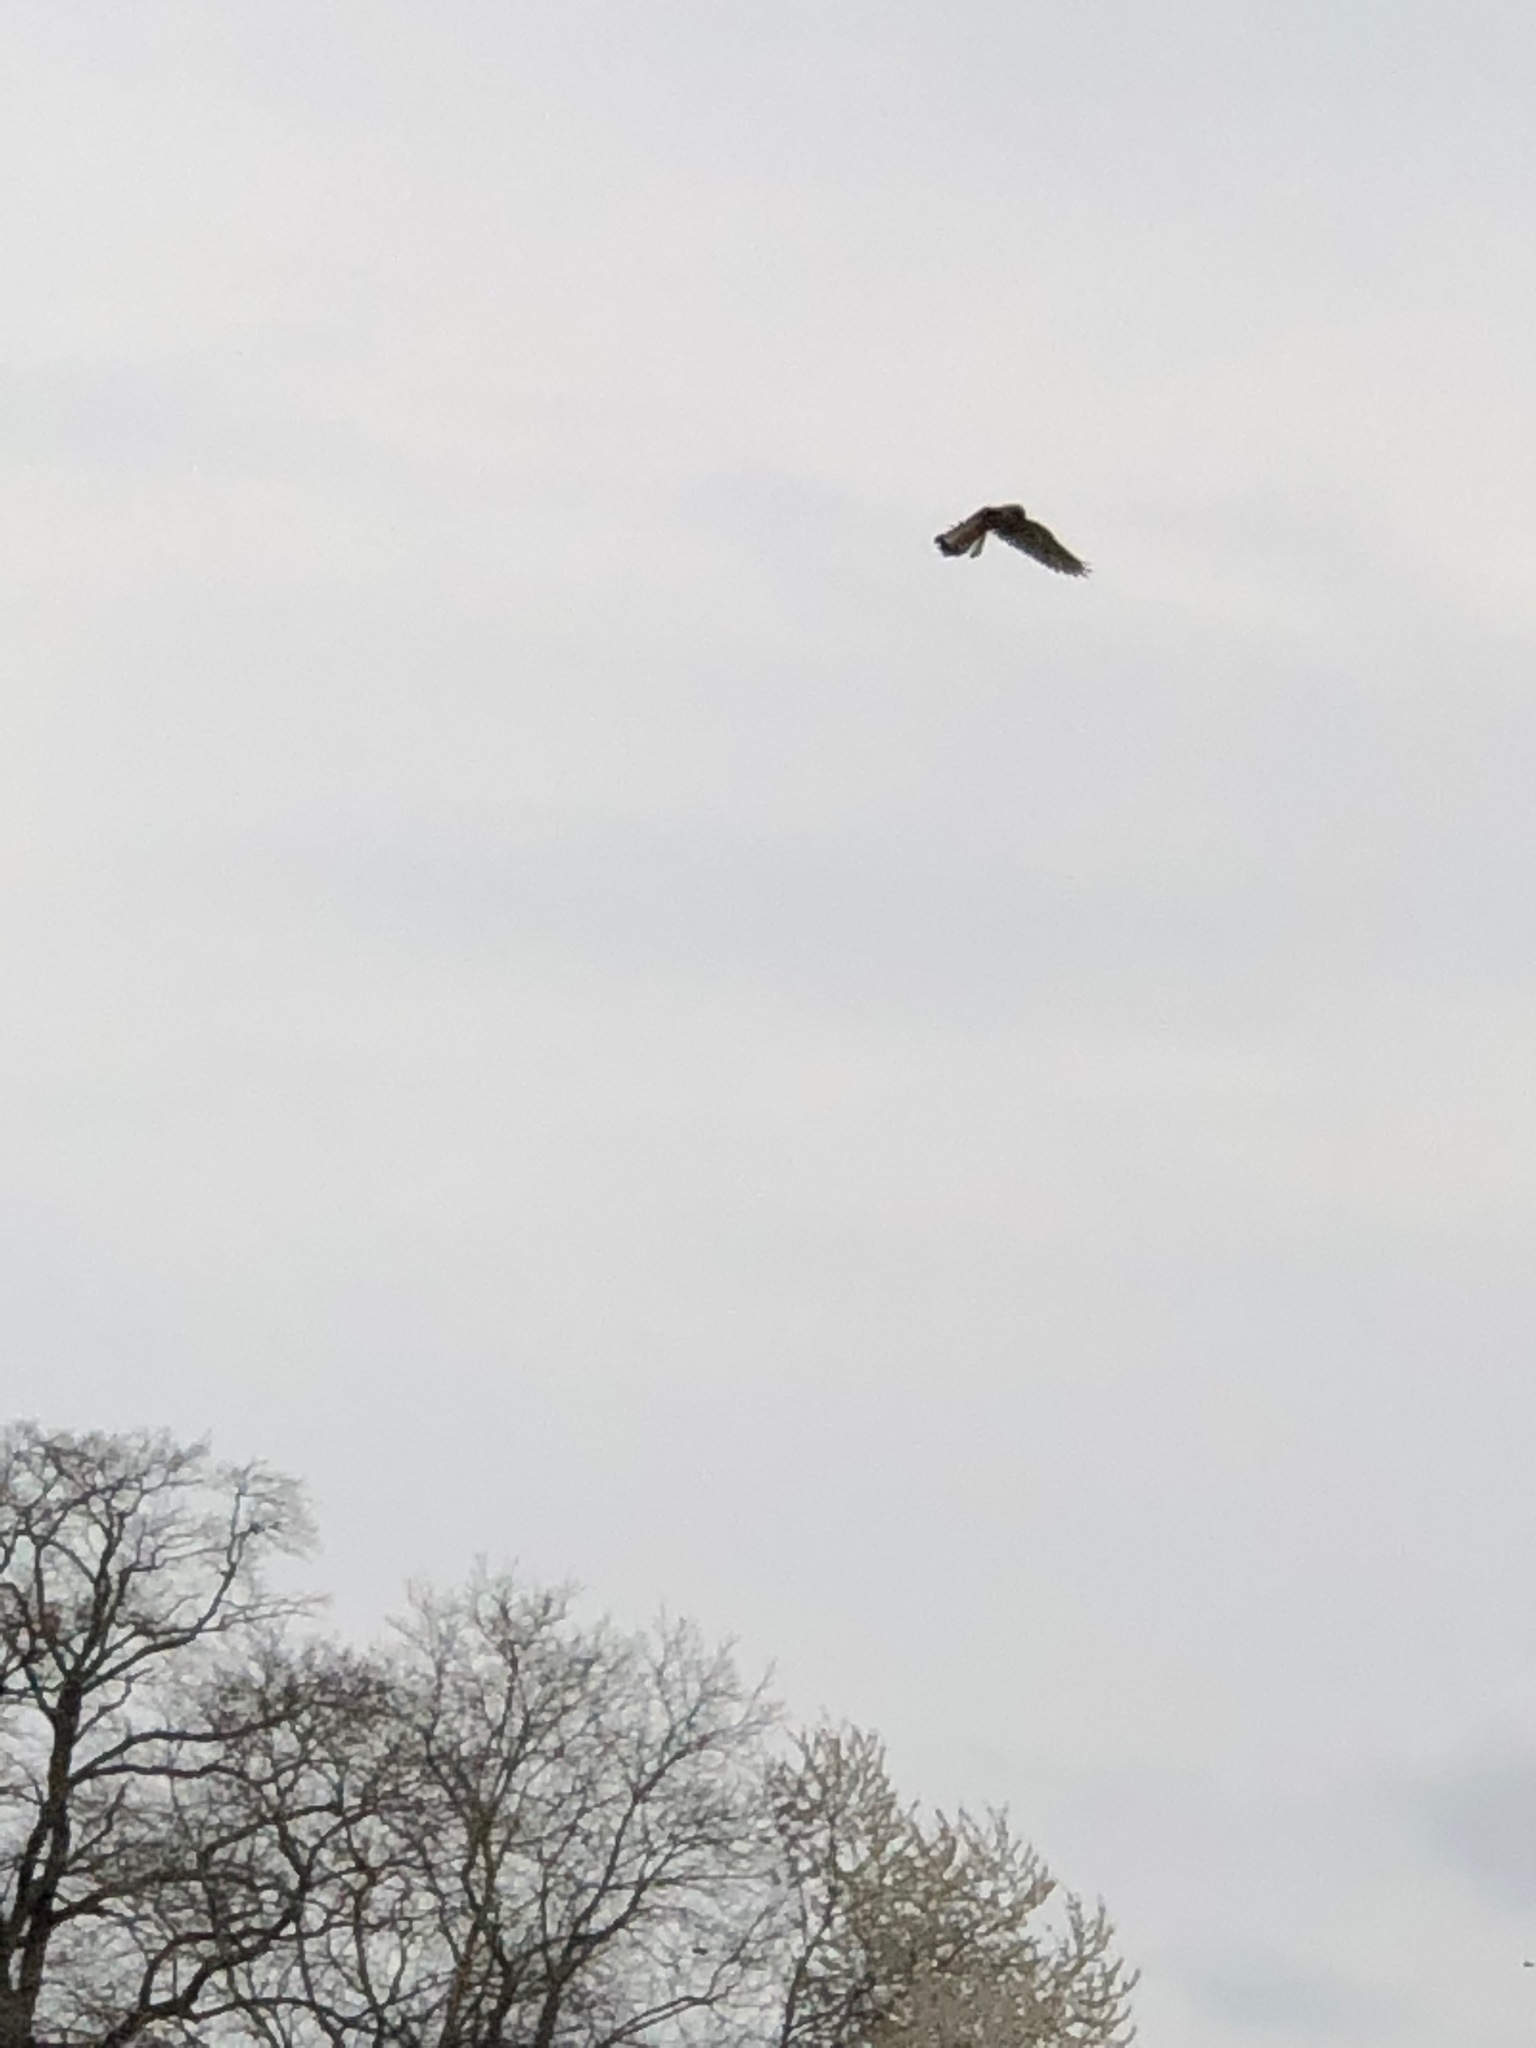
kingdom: Animalia
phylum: Chordata
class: Aves
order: Falconiformes
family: Falconidae
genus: Falco
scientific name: Falco tinnunculus
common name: Common kestrel
